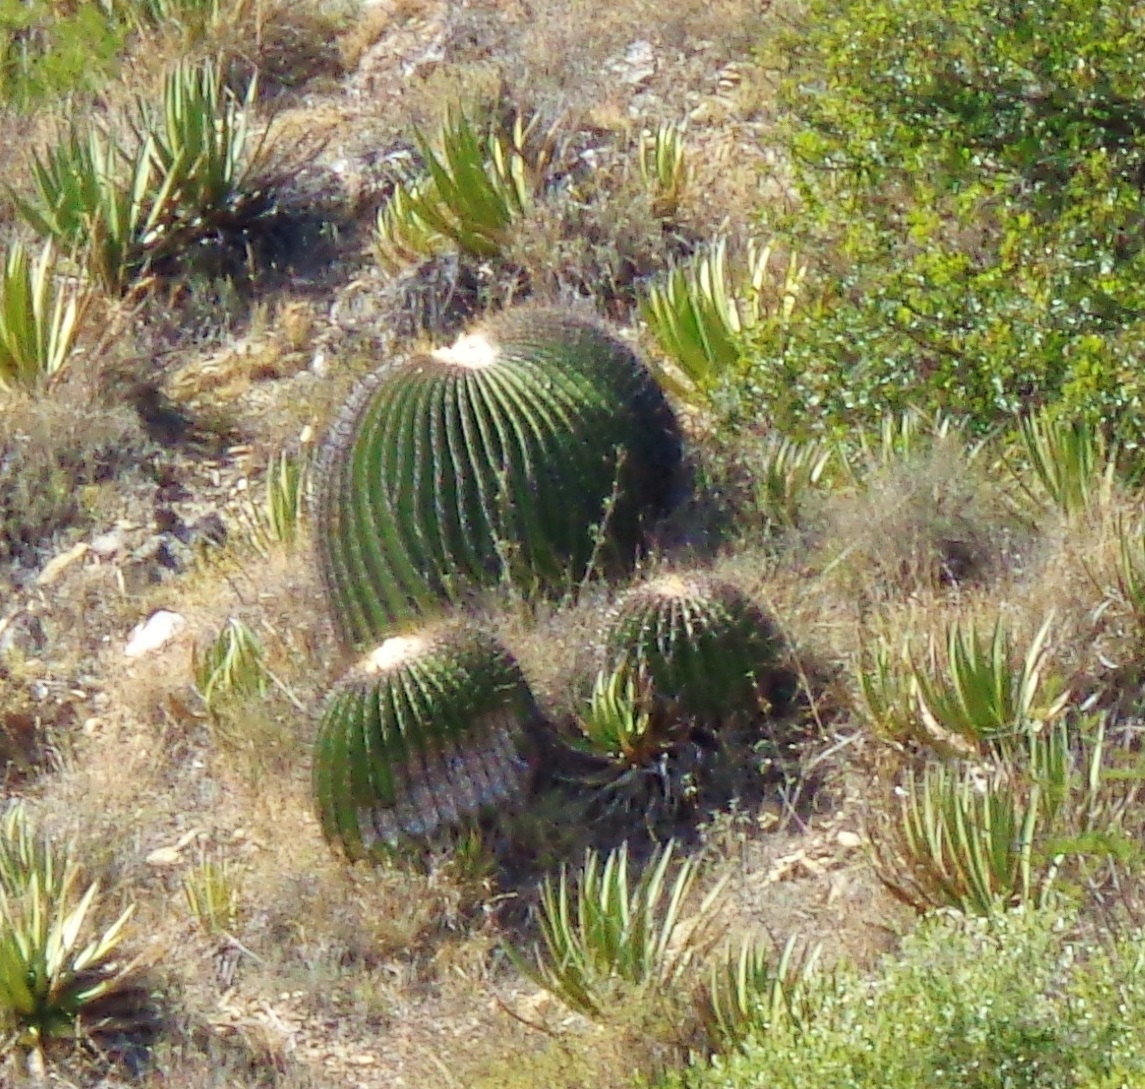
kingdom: Plantae
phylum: Tracheophyta
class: Magnoliopsida
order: Caryophyllales
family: Cactaceae
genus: Echinocactus
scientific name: Echinocactus platyacanthus
